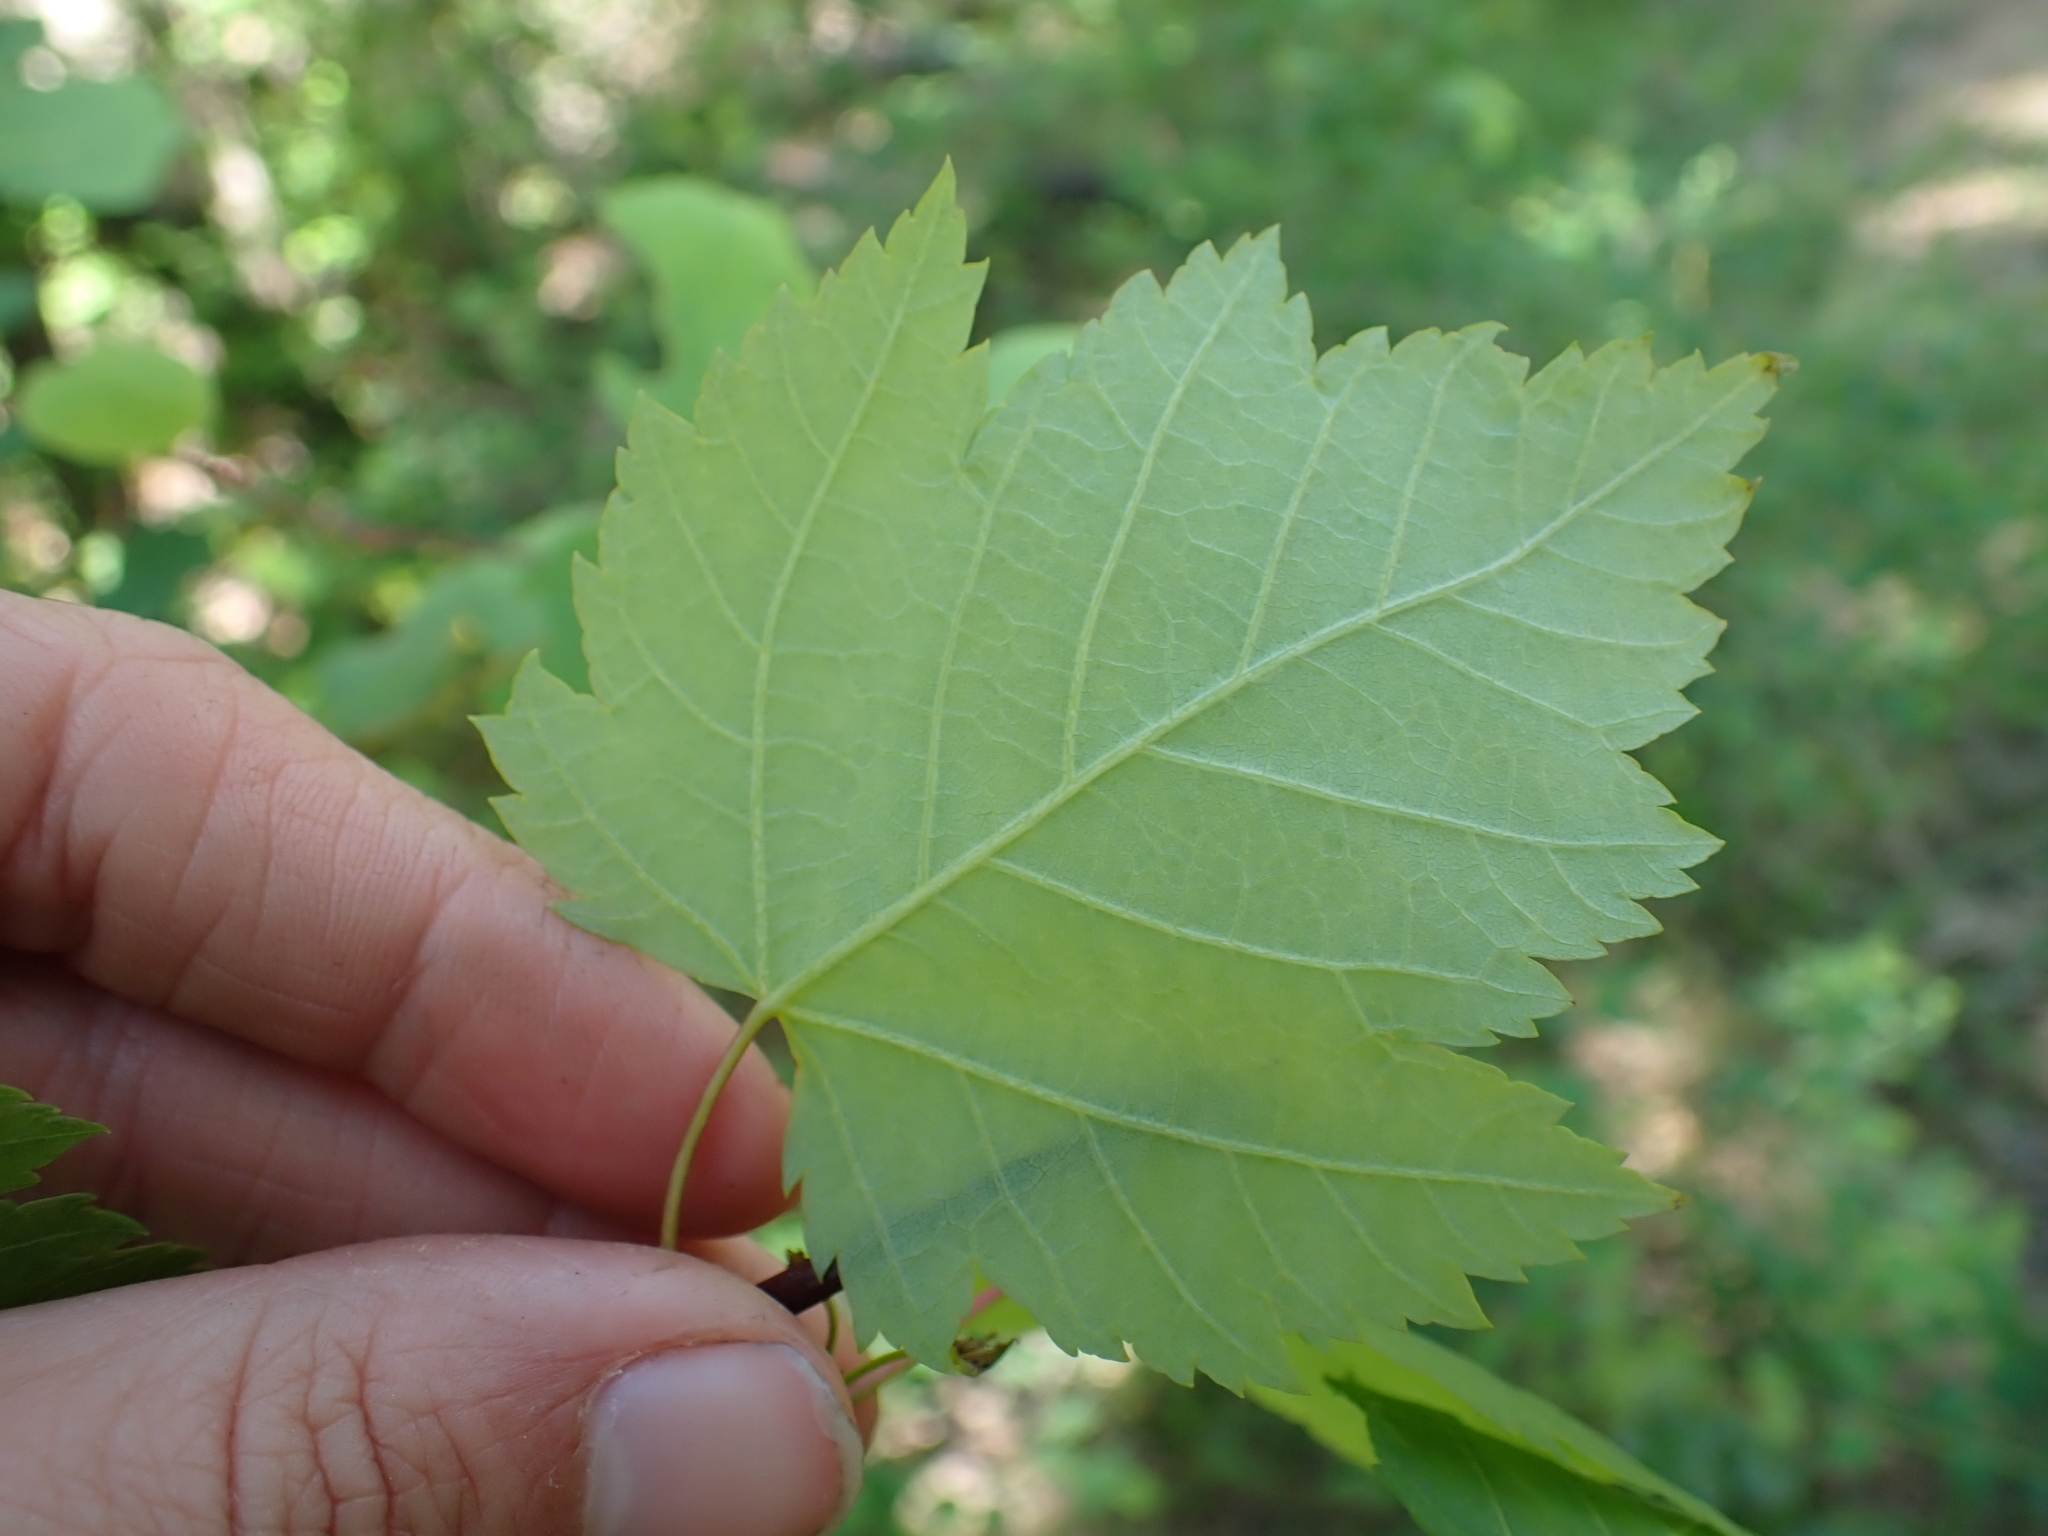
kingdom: Plantae
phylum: Tracheophyta
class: Magnoliopsida
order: Sapindales
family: Sapindaceae
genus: Acer
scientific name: Acer glabrum
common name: Rocky mountain maple
